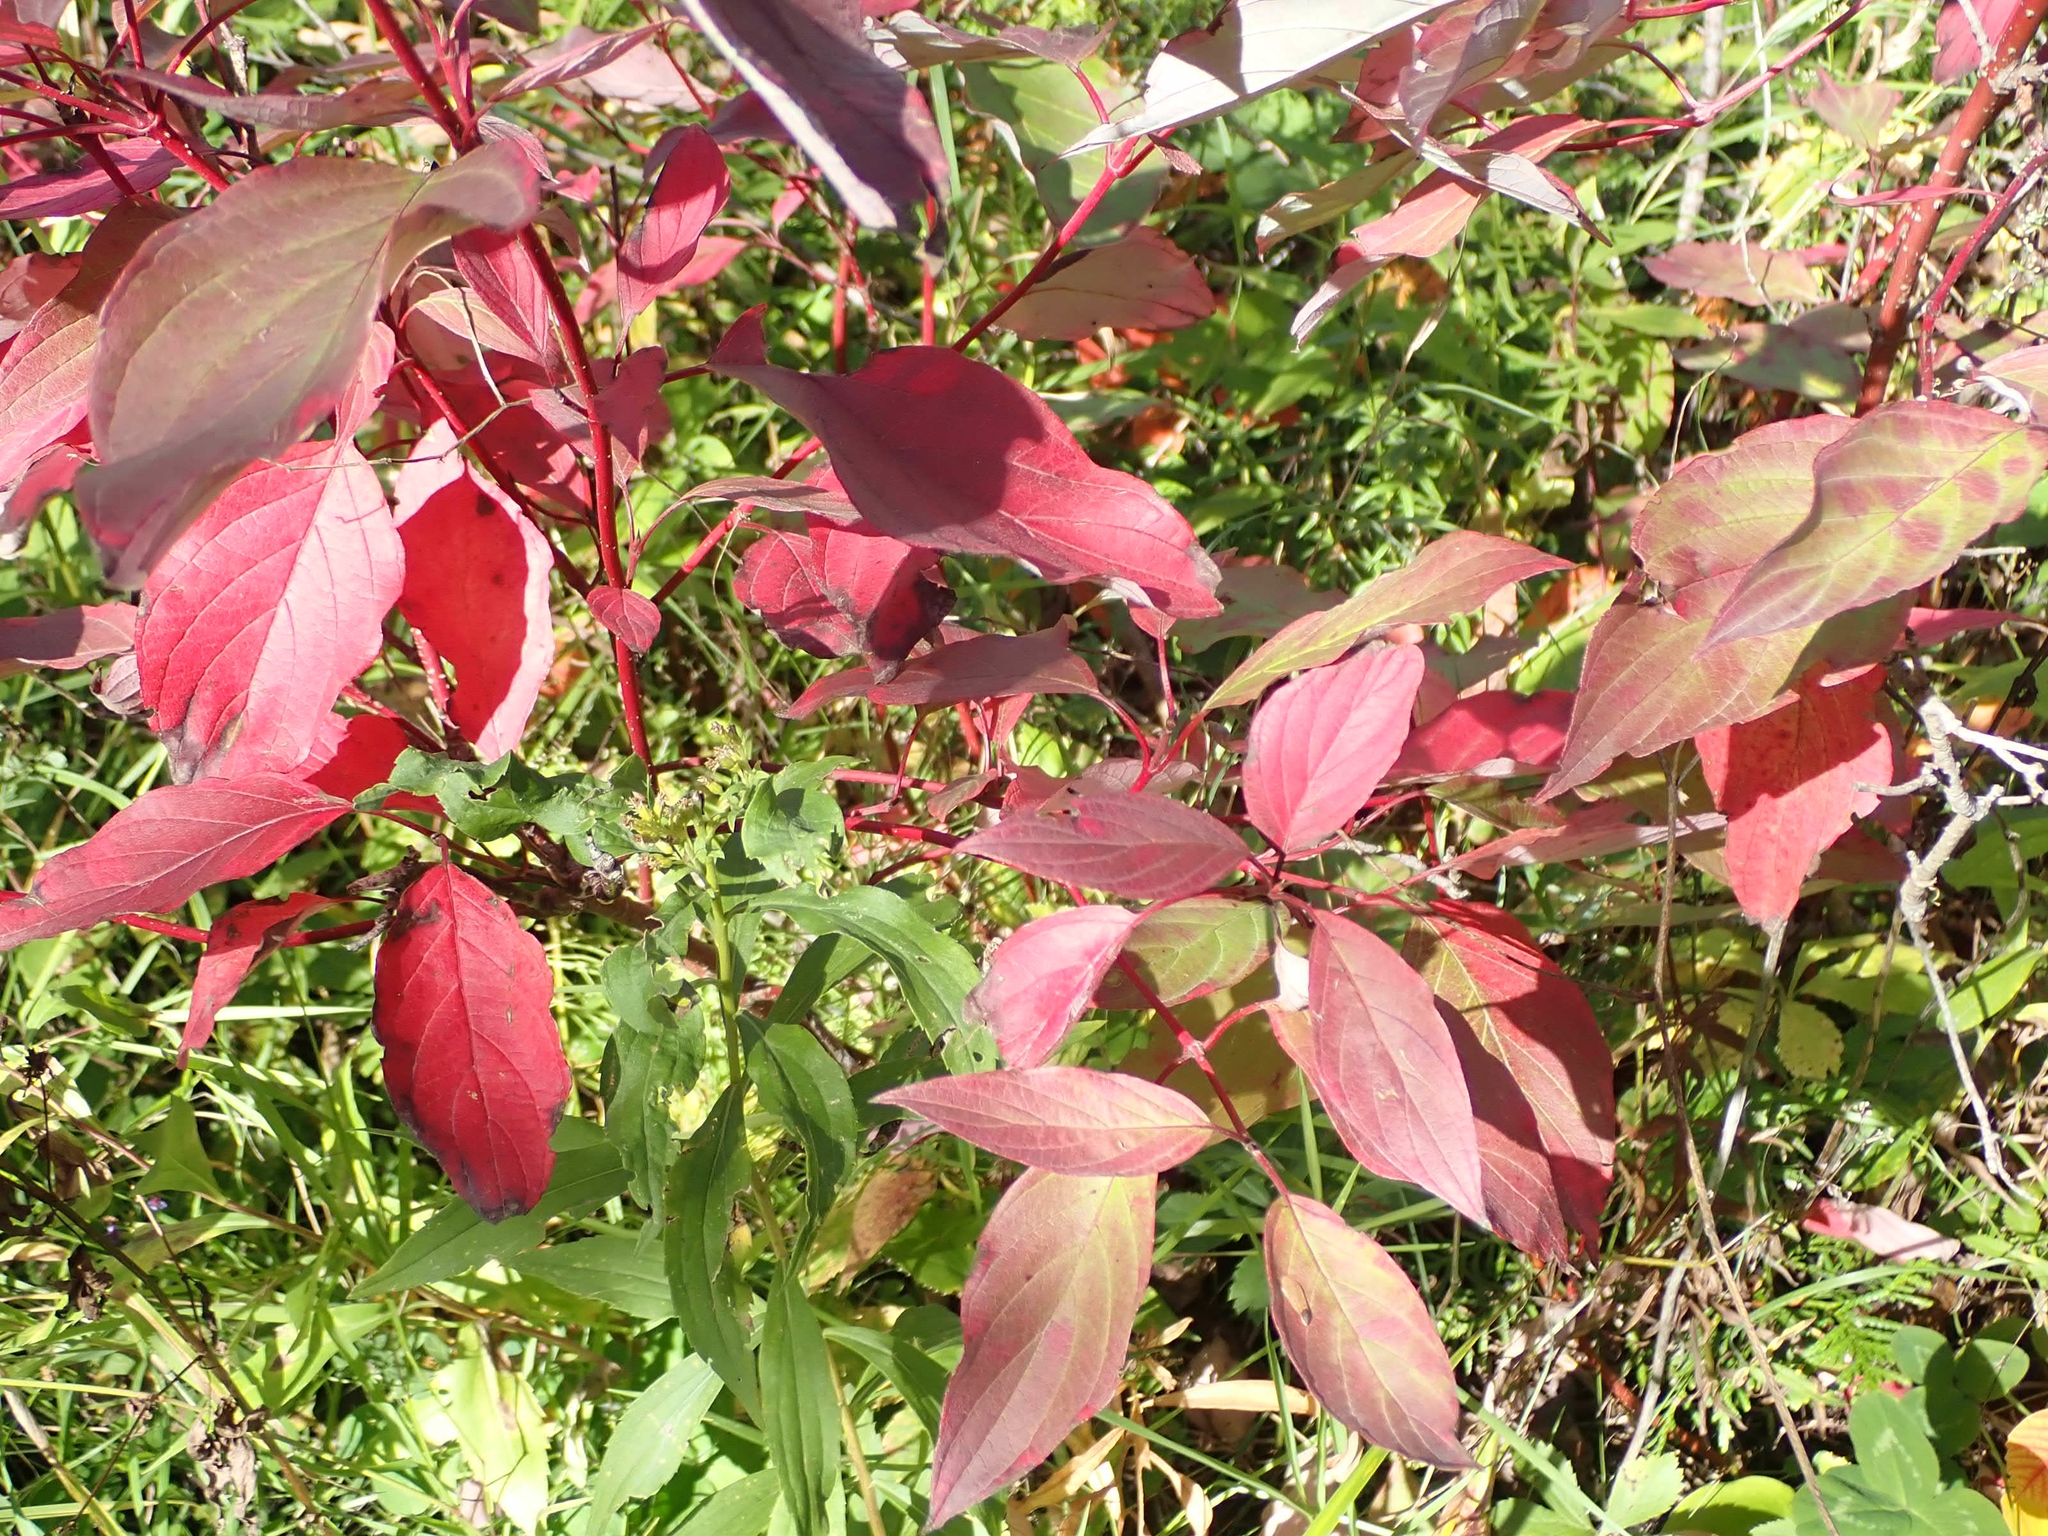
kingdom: Plantae
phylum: Tracheophyta
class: Magnoliopsida
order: Cornales
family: Cornaceae
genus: Cornus
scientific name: Cornus sericea
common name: Red-osier dogwood
